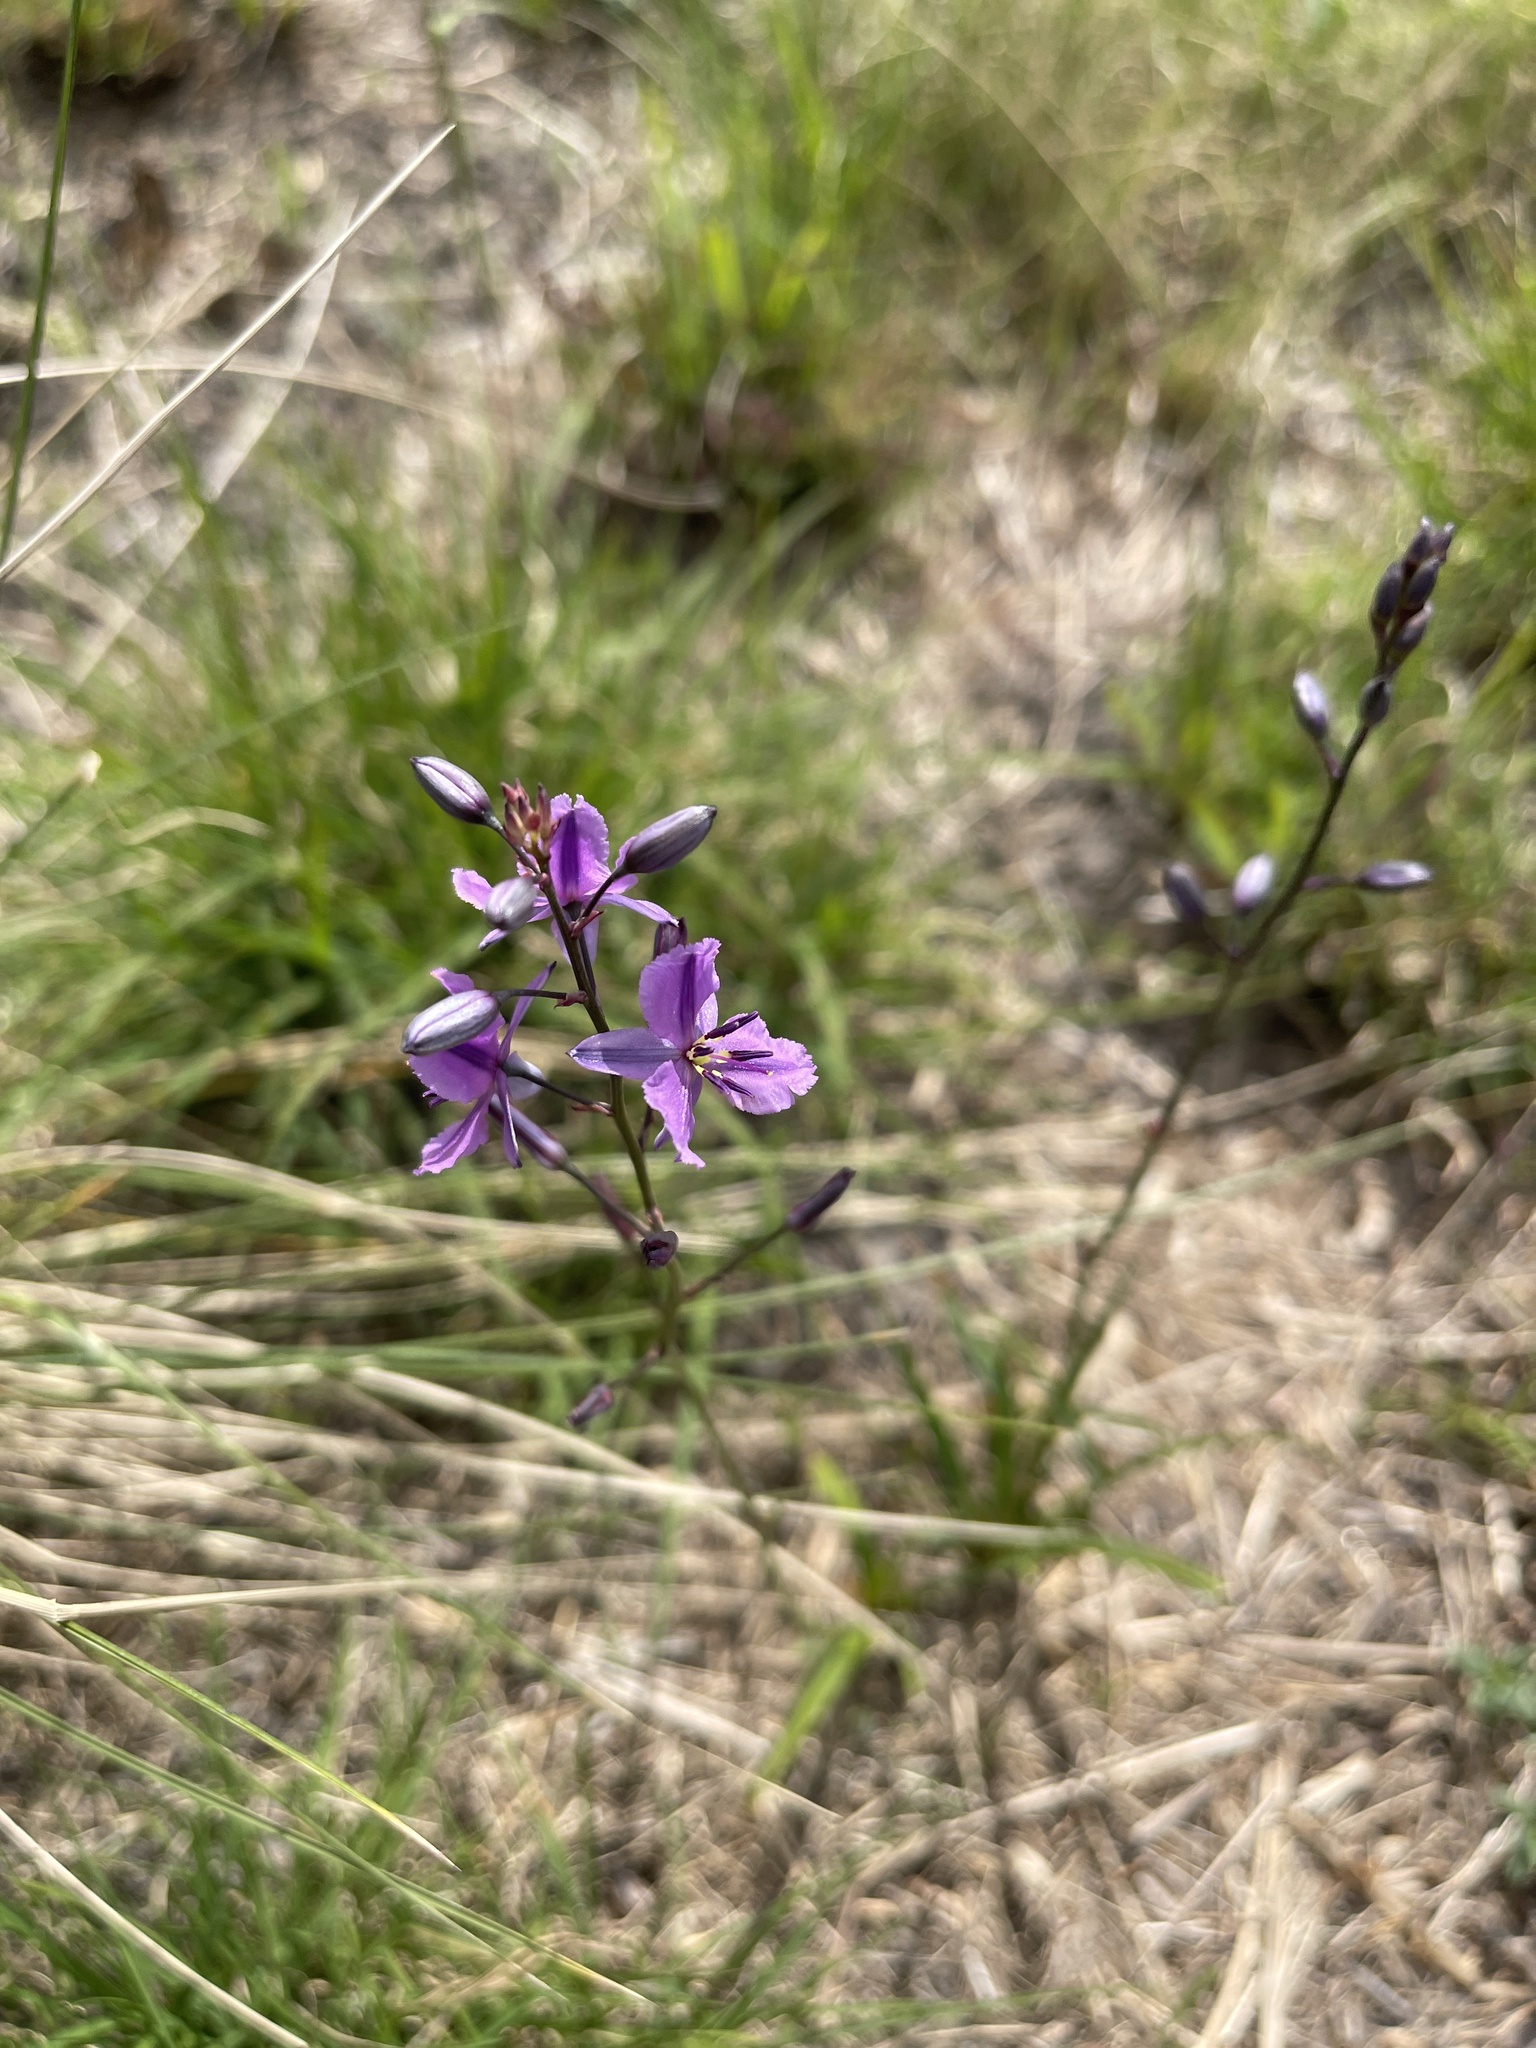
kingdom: Plantae
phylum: Tracheophyta
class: Liliopsida
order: Asparagales
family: Asparagaceae
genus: Arthropodium
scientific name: Arthropodium strictum
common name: Chocolate-lily
